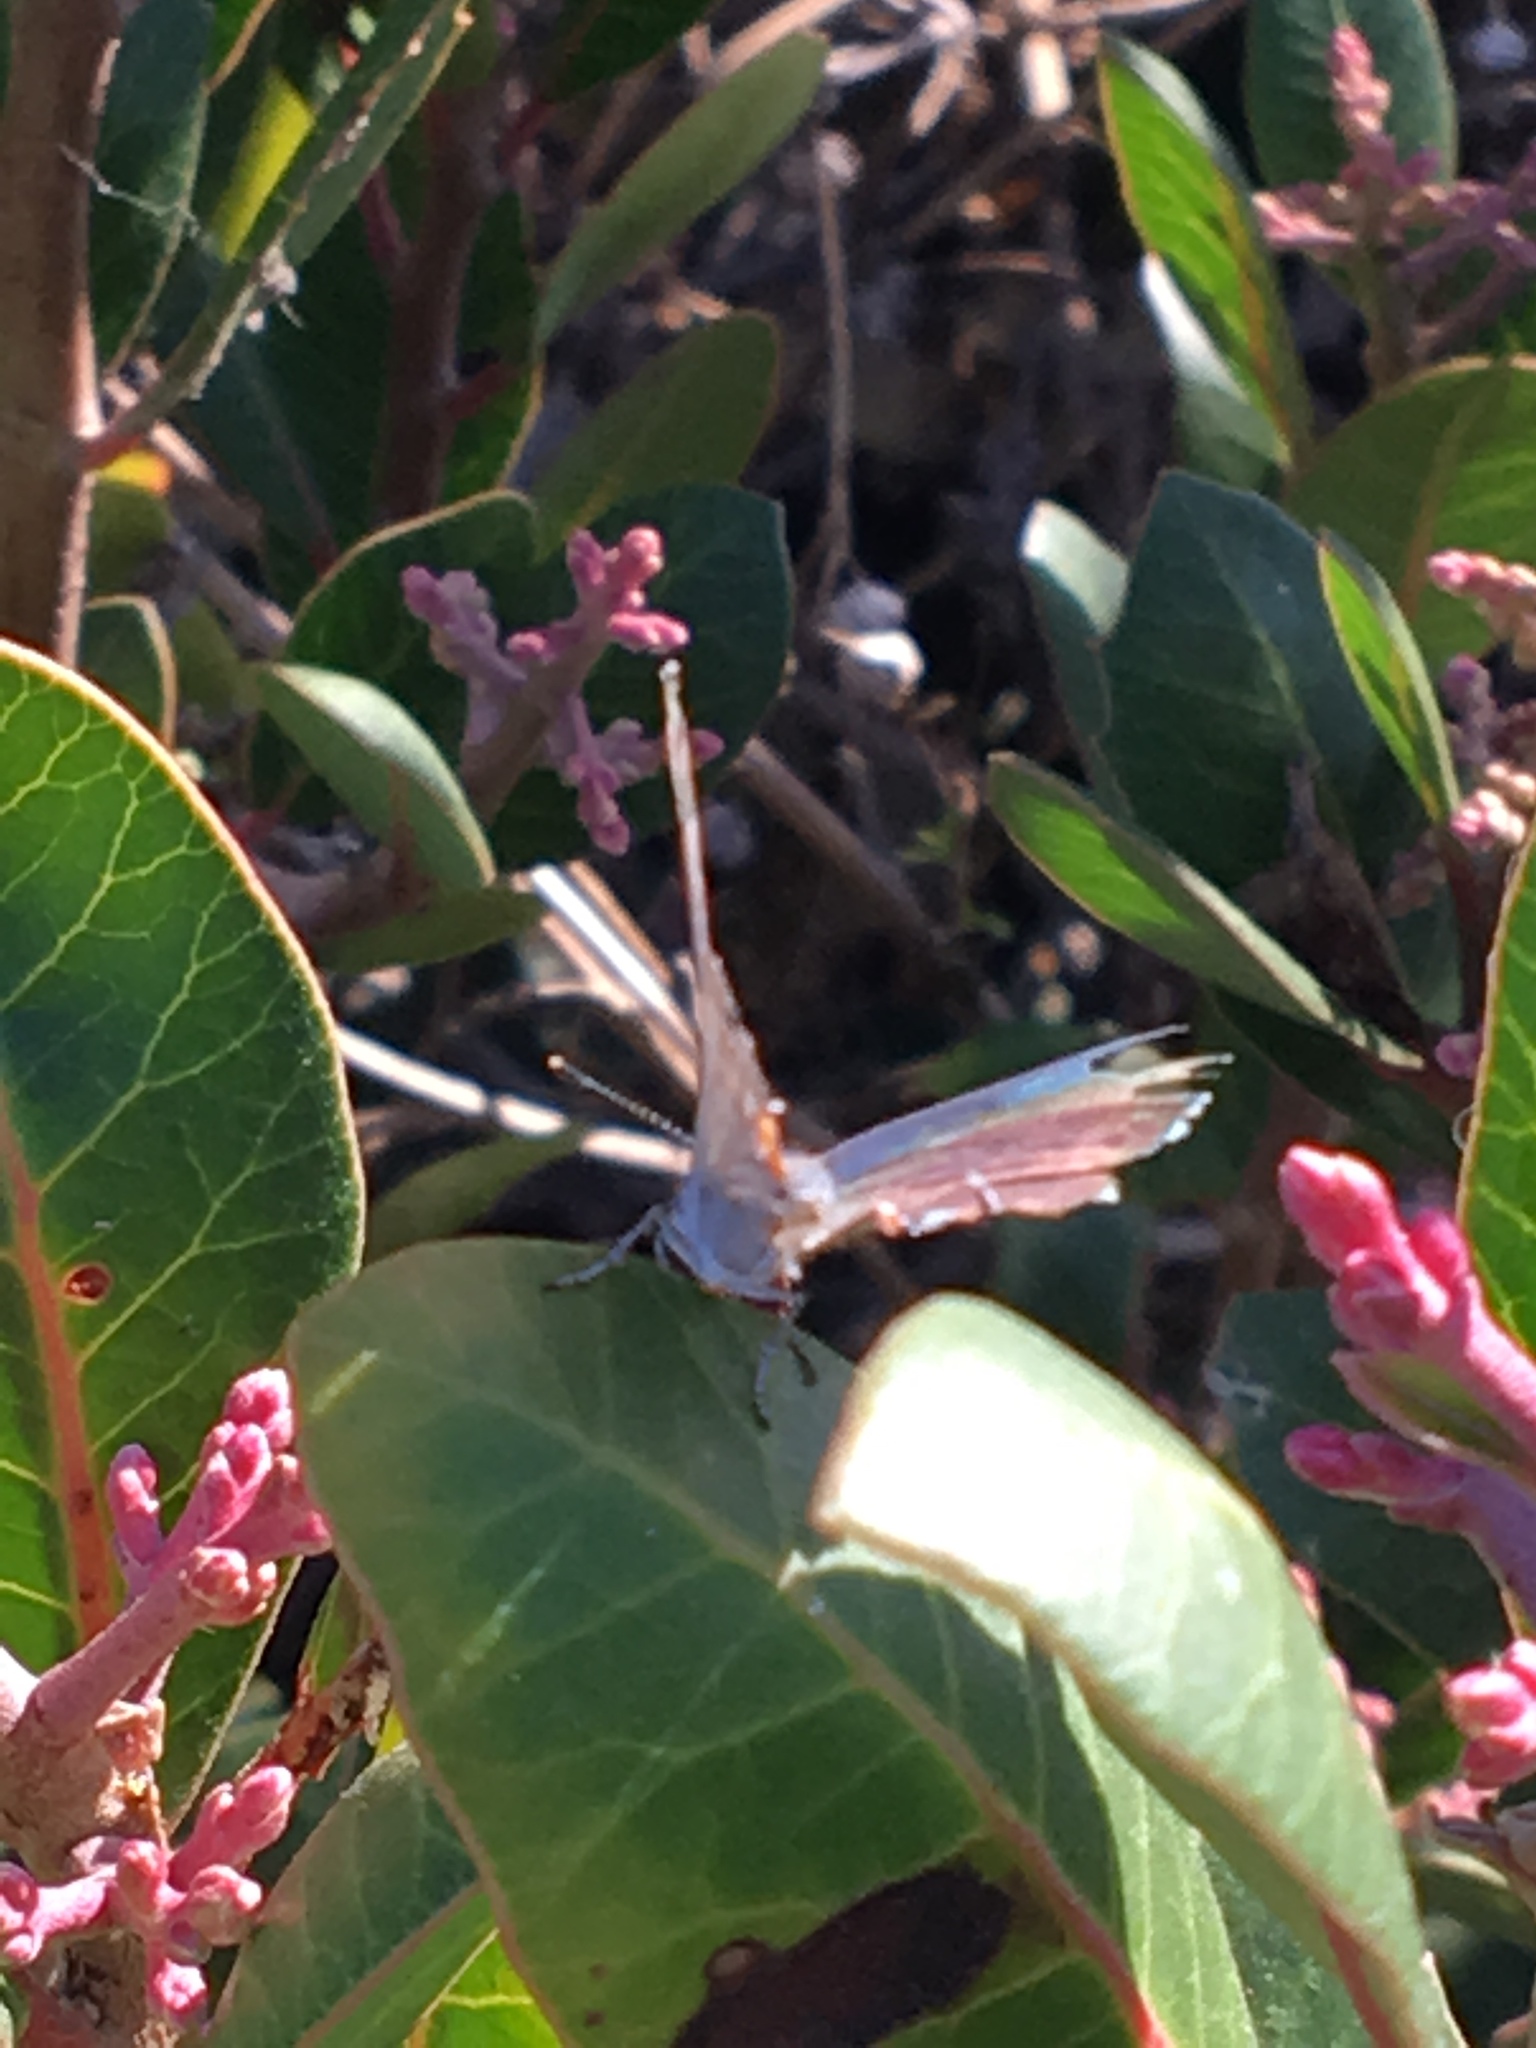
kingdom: Animalia
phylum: Arthropoda
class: Insecta
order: Lepidoptera
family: Lycaenidae
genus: Strymon
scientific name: Strymon melinus
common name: Gray hairstreak
